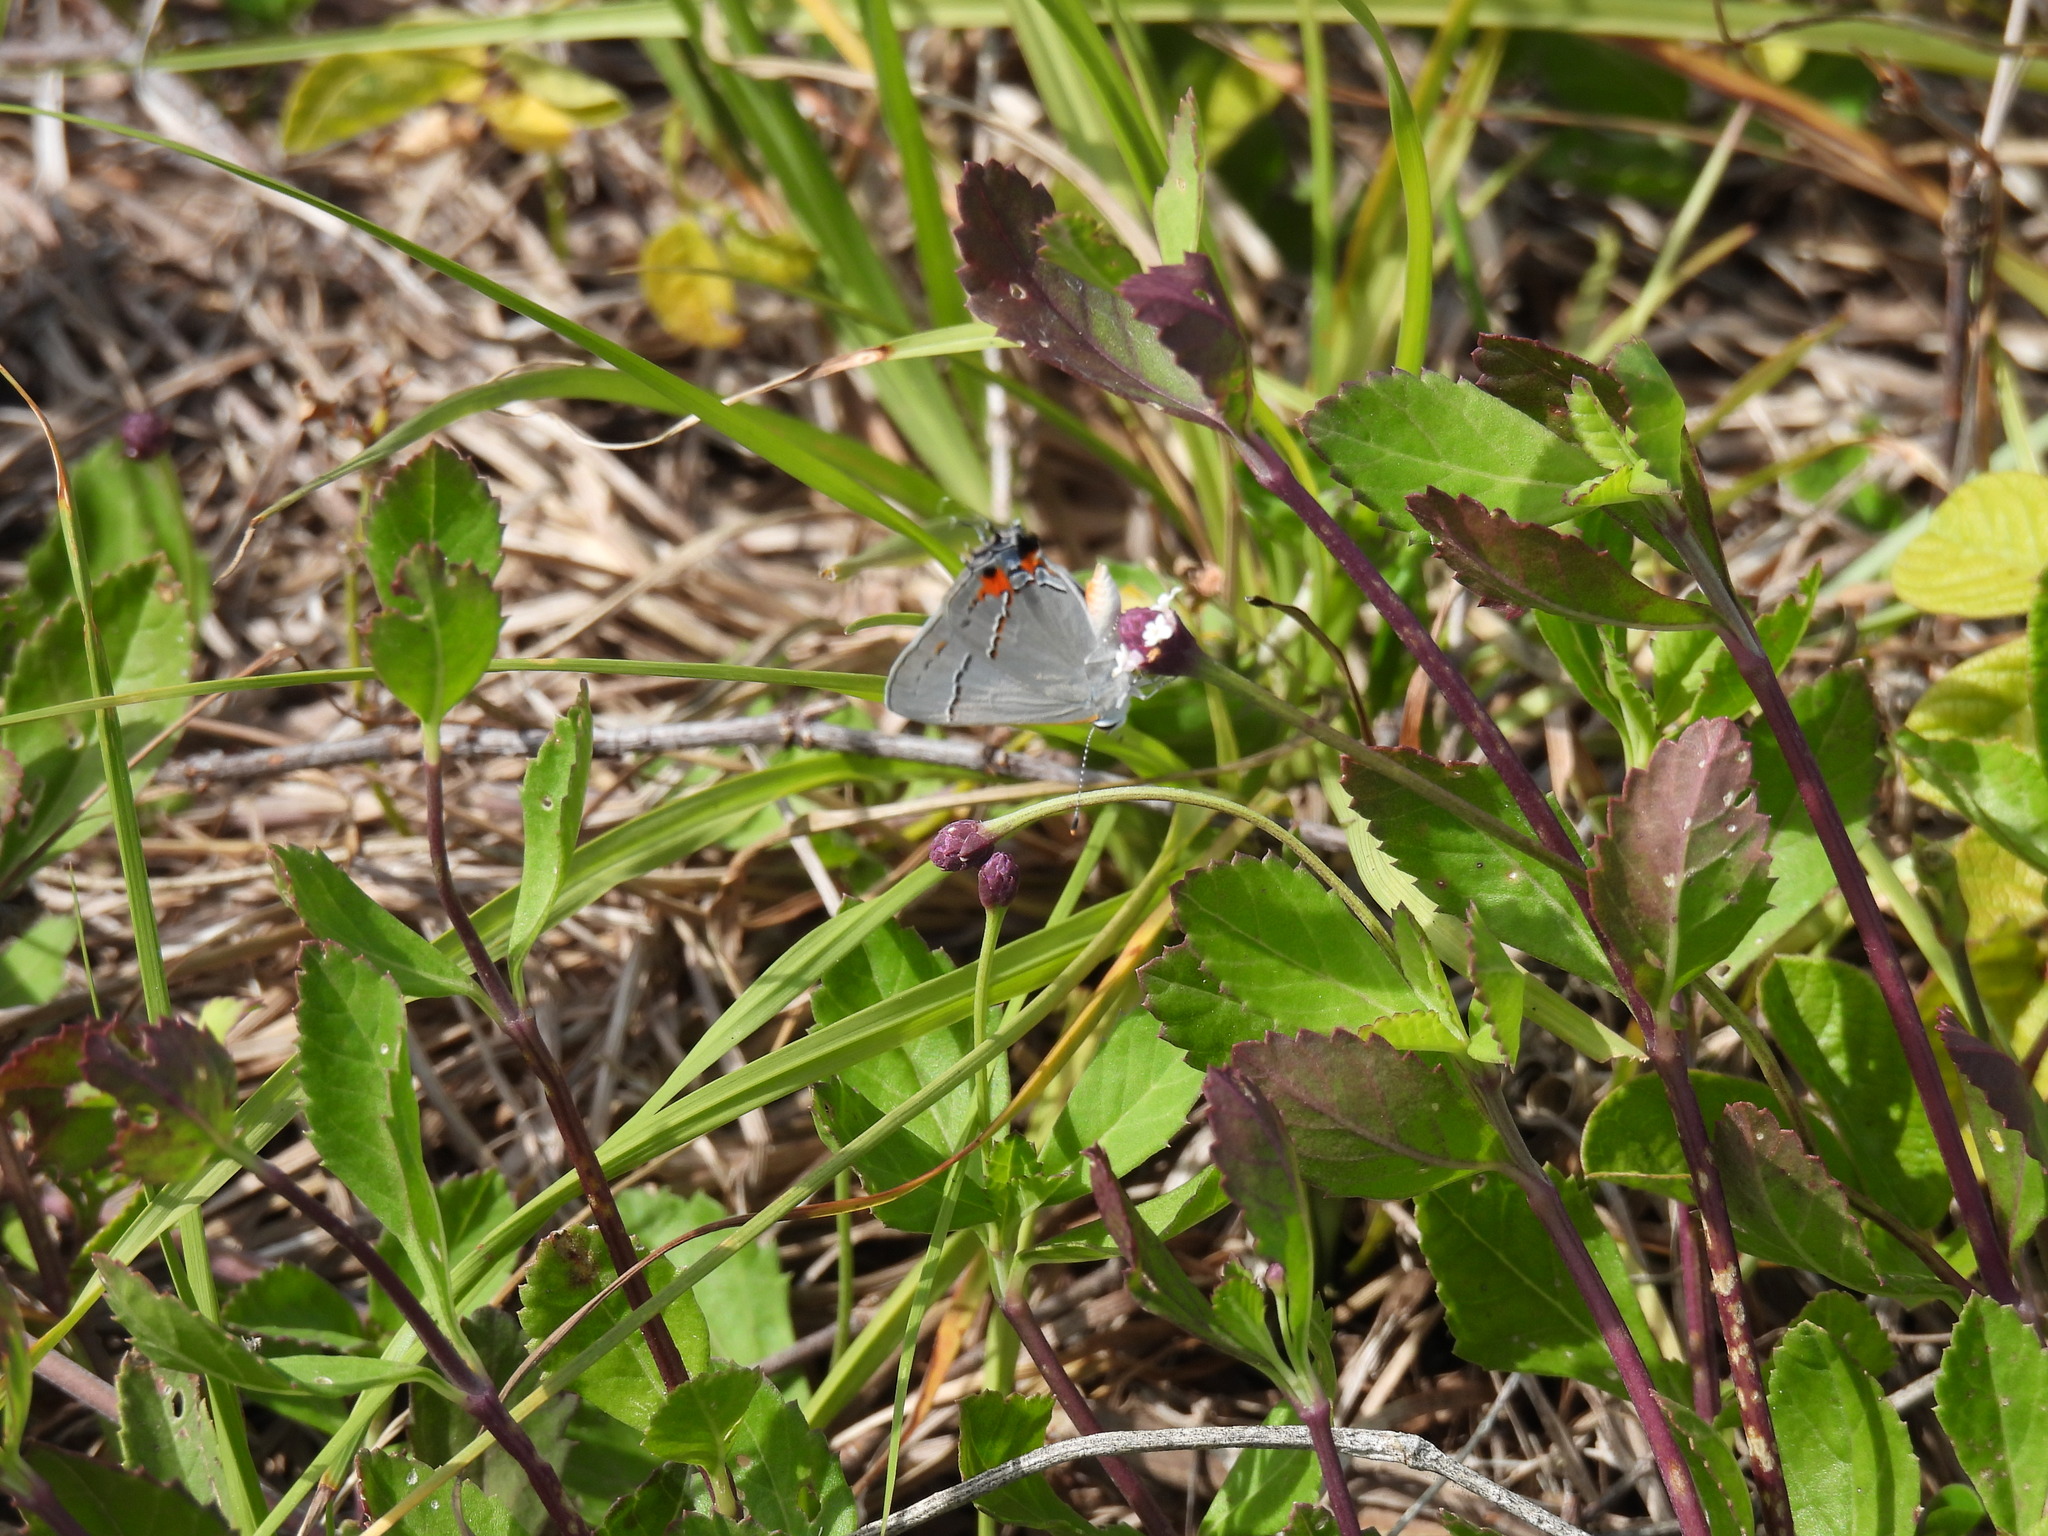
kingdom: Animalia
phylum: Arthropoda
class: Insecta
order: Lepidoptera
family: Lycaenidae
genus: Strymon
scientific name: Strymon melinus
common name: Gray hairstreak
